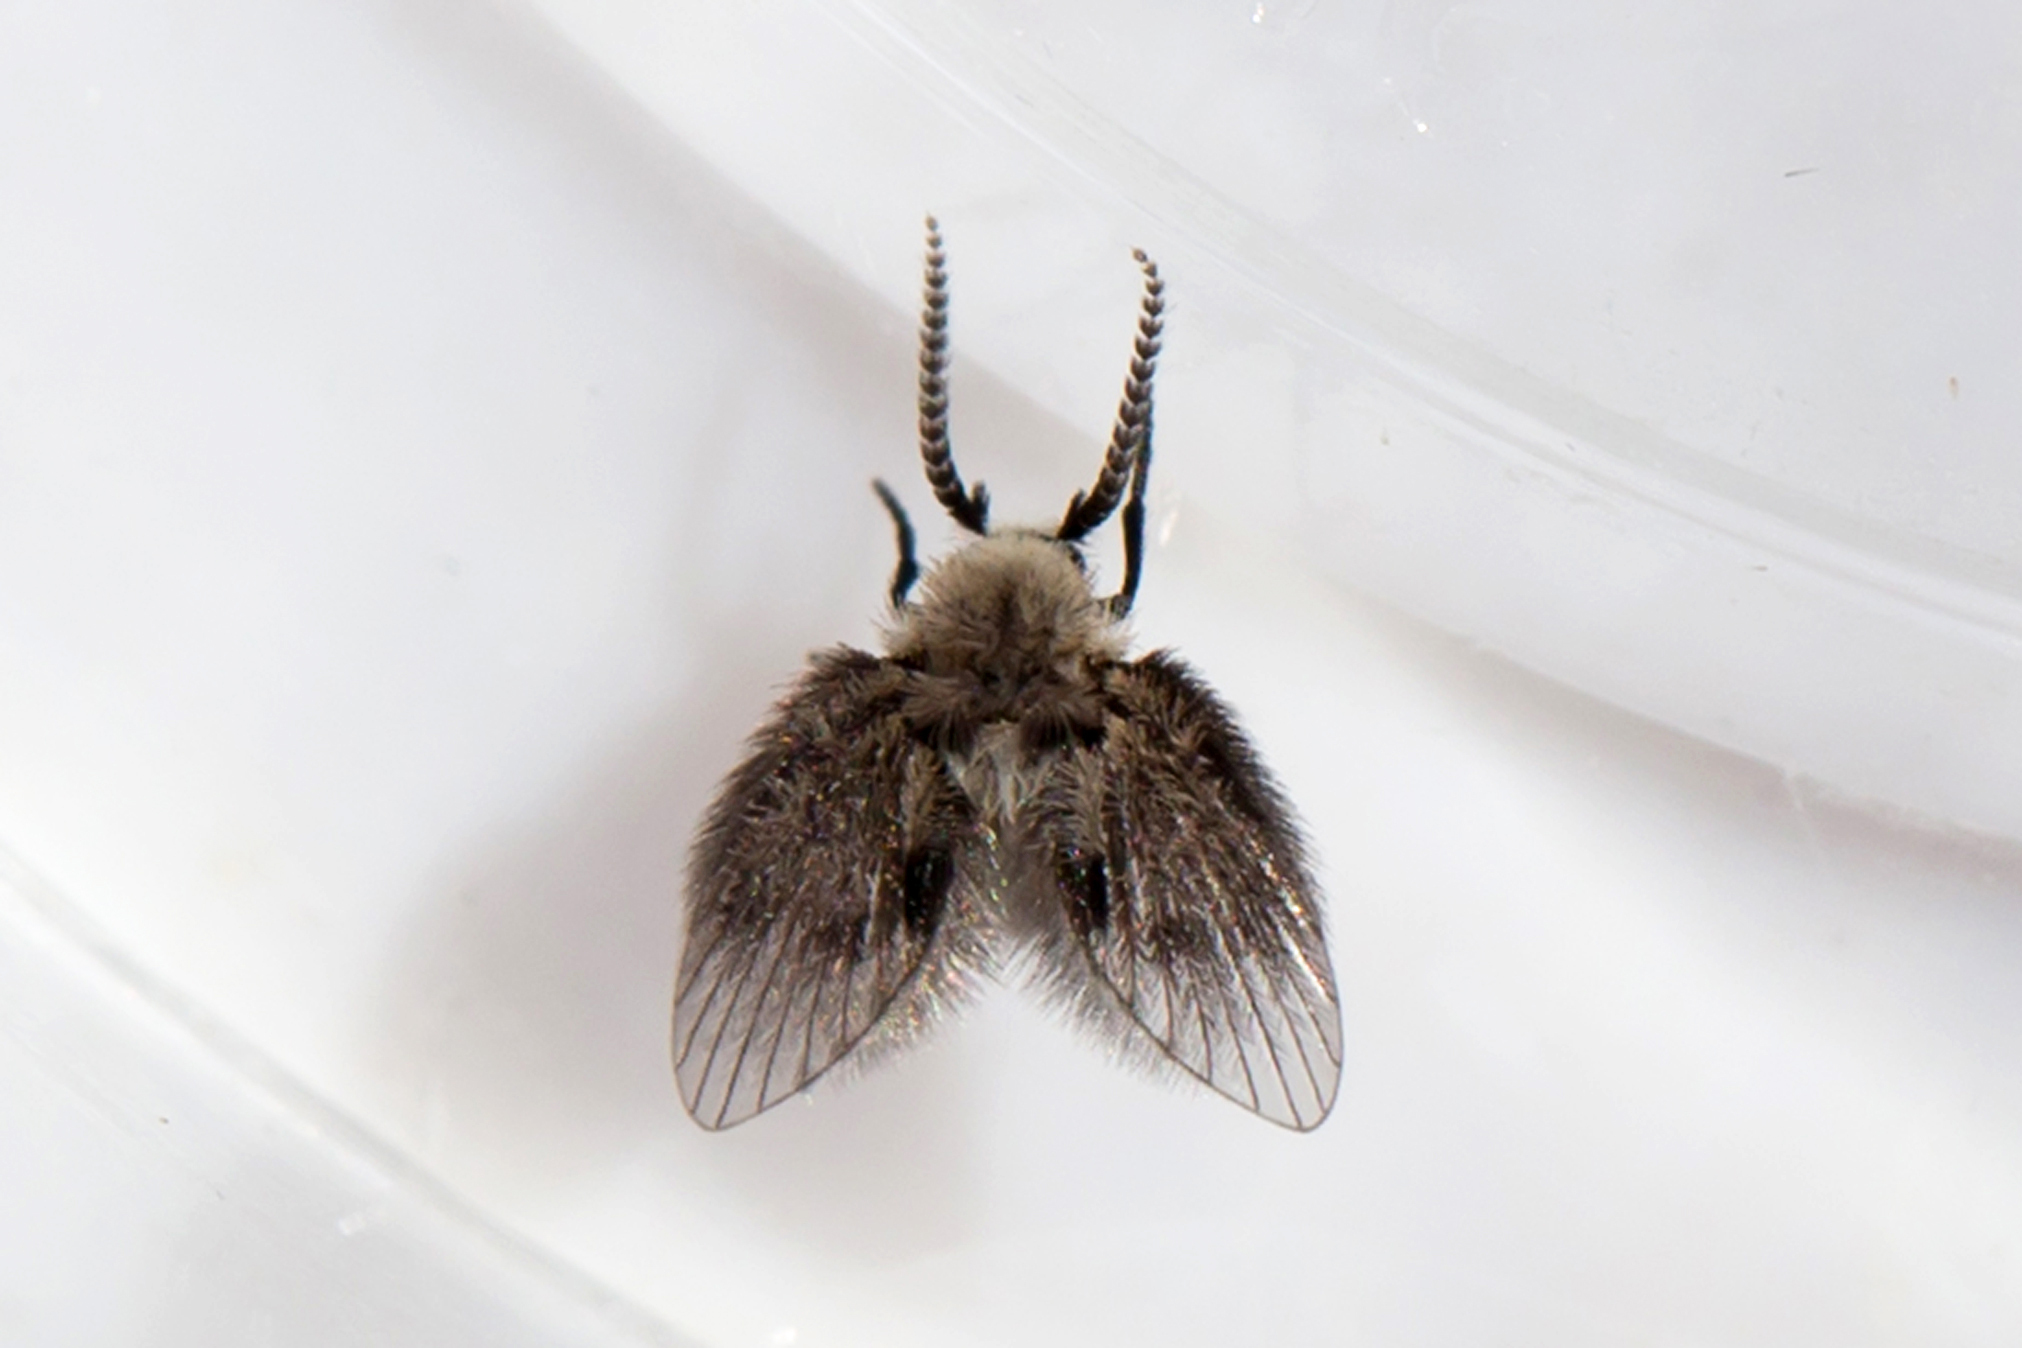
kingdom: Animalia
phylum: Arthropoda
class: Insecta
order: Diptera
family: Psychodidae
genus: Lepiseodina
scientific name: Lepiseodina
